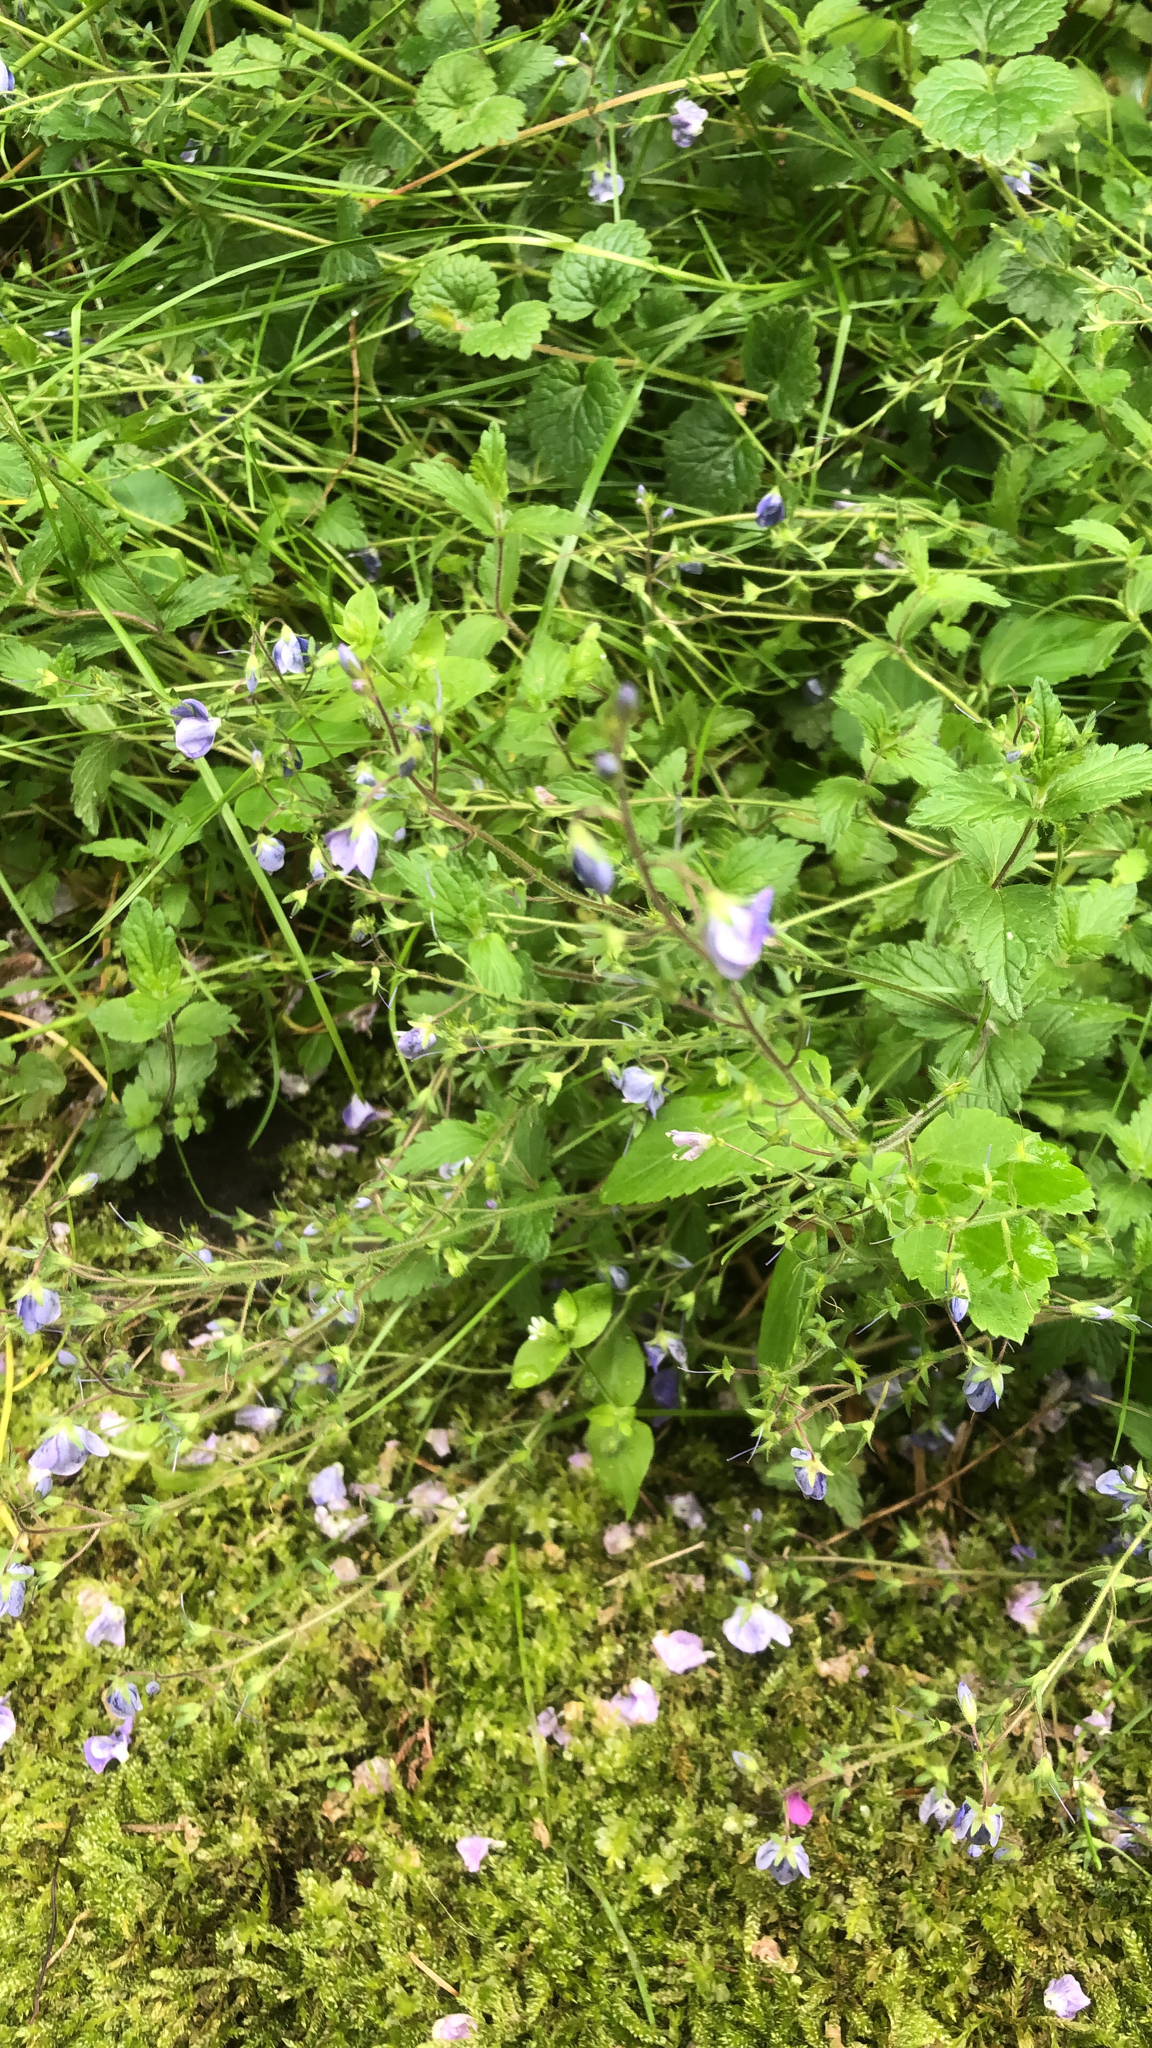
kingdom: Plantae
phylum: Tracheophyta
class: Magnoliopsida
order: Lamiales
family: Plantaginaceae
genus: Veronica
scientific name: Veronica chamaedrys
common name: Germander speedwell
